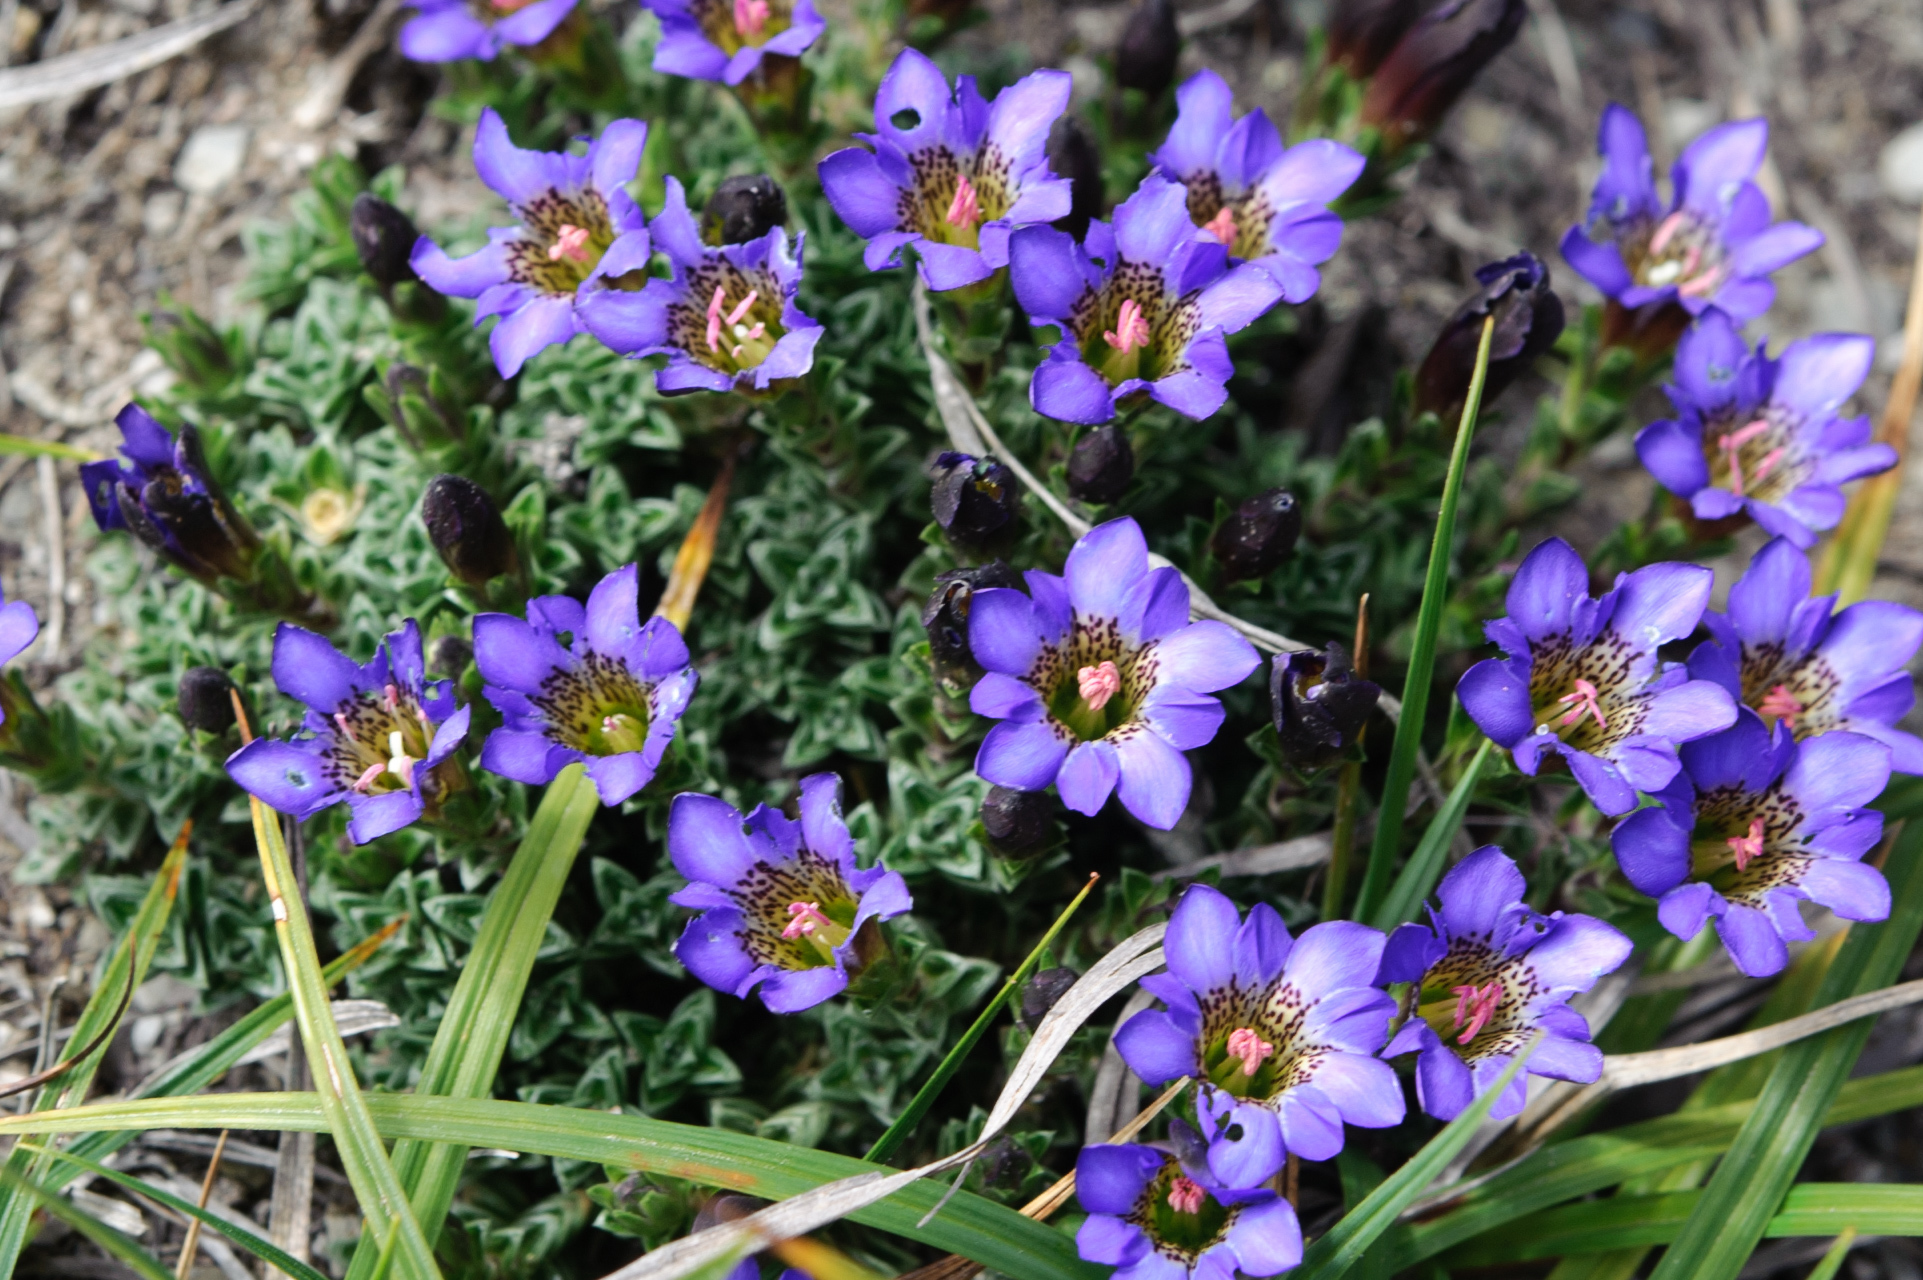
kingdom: Plantae
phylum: Tracheophyta
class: Magnoliopsida
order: Gentianales
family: Gentianaceae
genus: Gentiana
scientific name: Gentiana arisanensis
